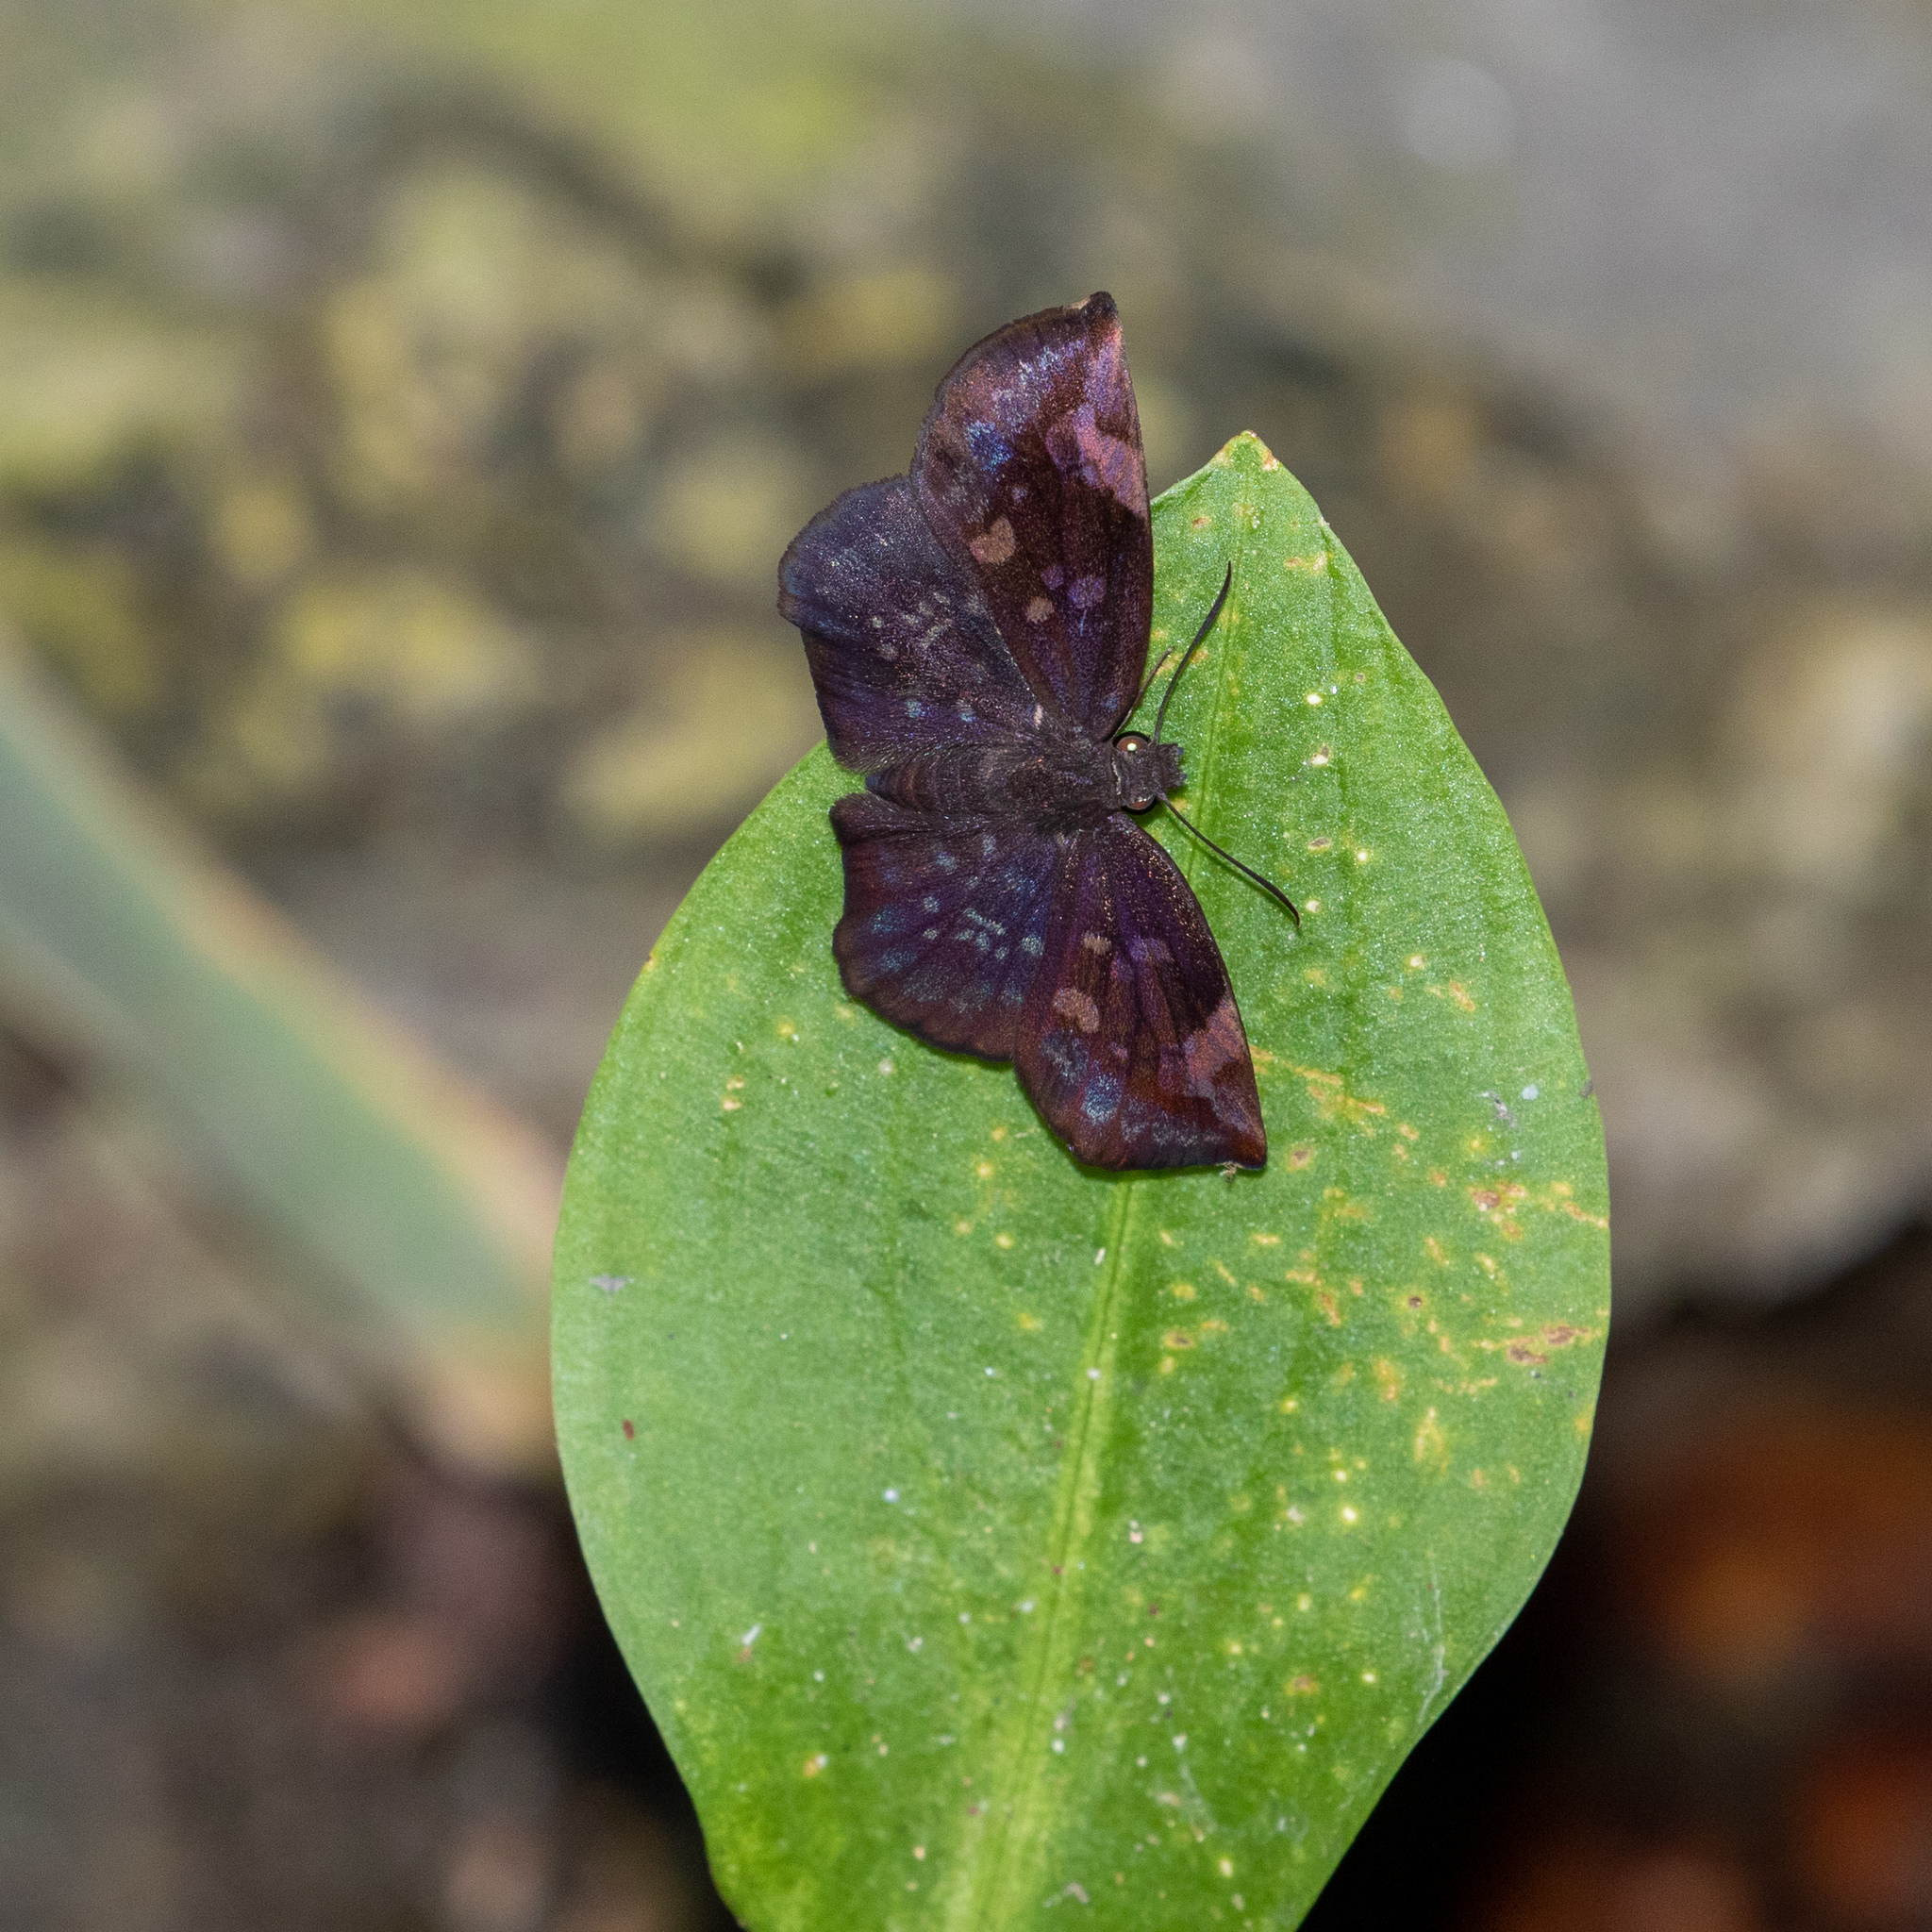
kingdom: Animalia
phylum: Arthropoda
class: Insecta
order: Lepidoptera
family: Hesperiidae
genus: Achlyodes
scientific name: Achlyodes thraso
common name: Sickle-winged skipper
